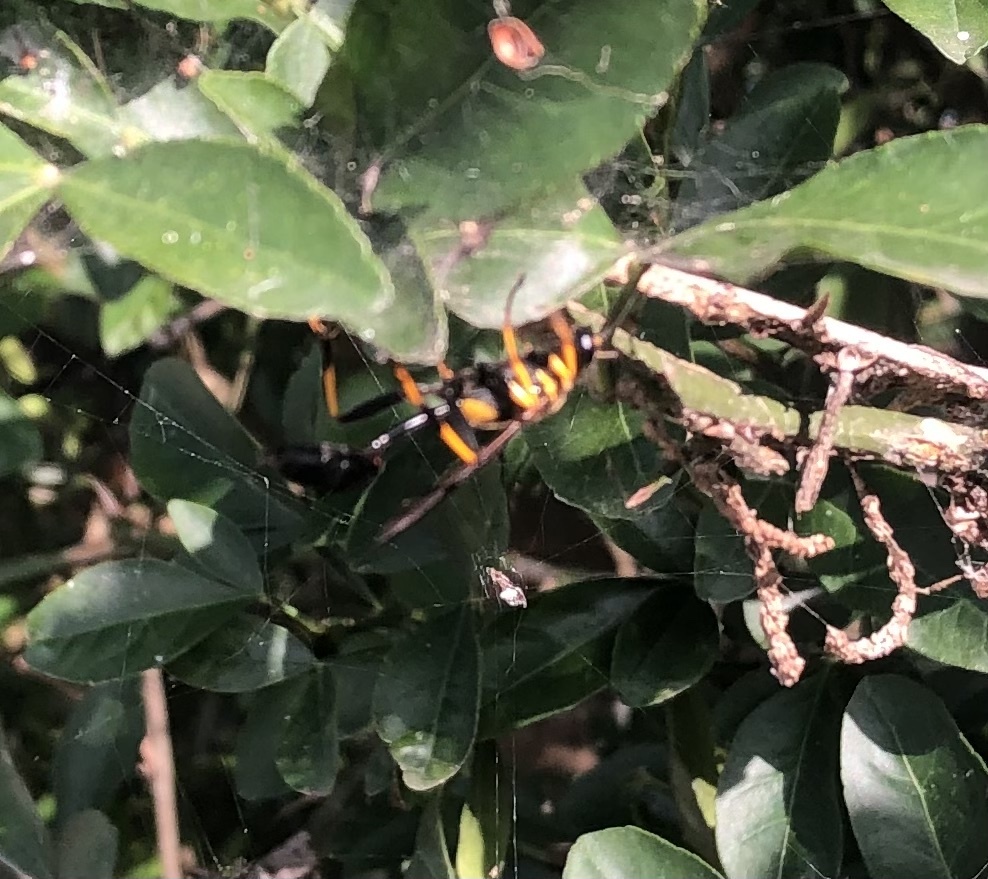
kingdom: Animalia
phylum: Arthropoda
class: Insecta
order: Hymenoptera
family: Sphecidae
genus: Sceliphron
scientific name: Sceliphron caementarium
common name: Mud dauber
